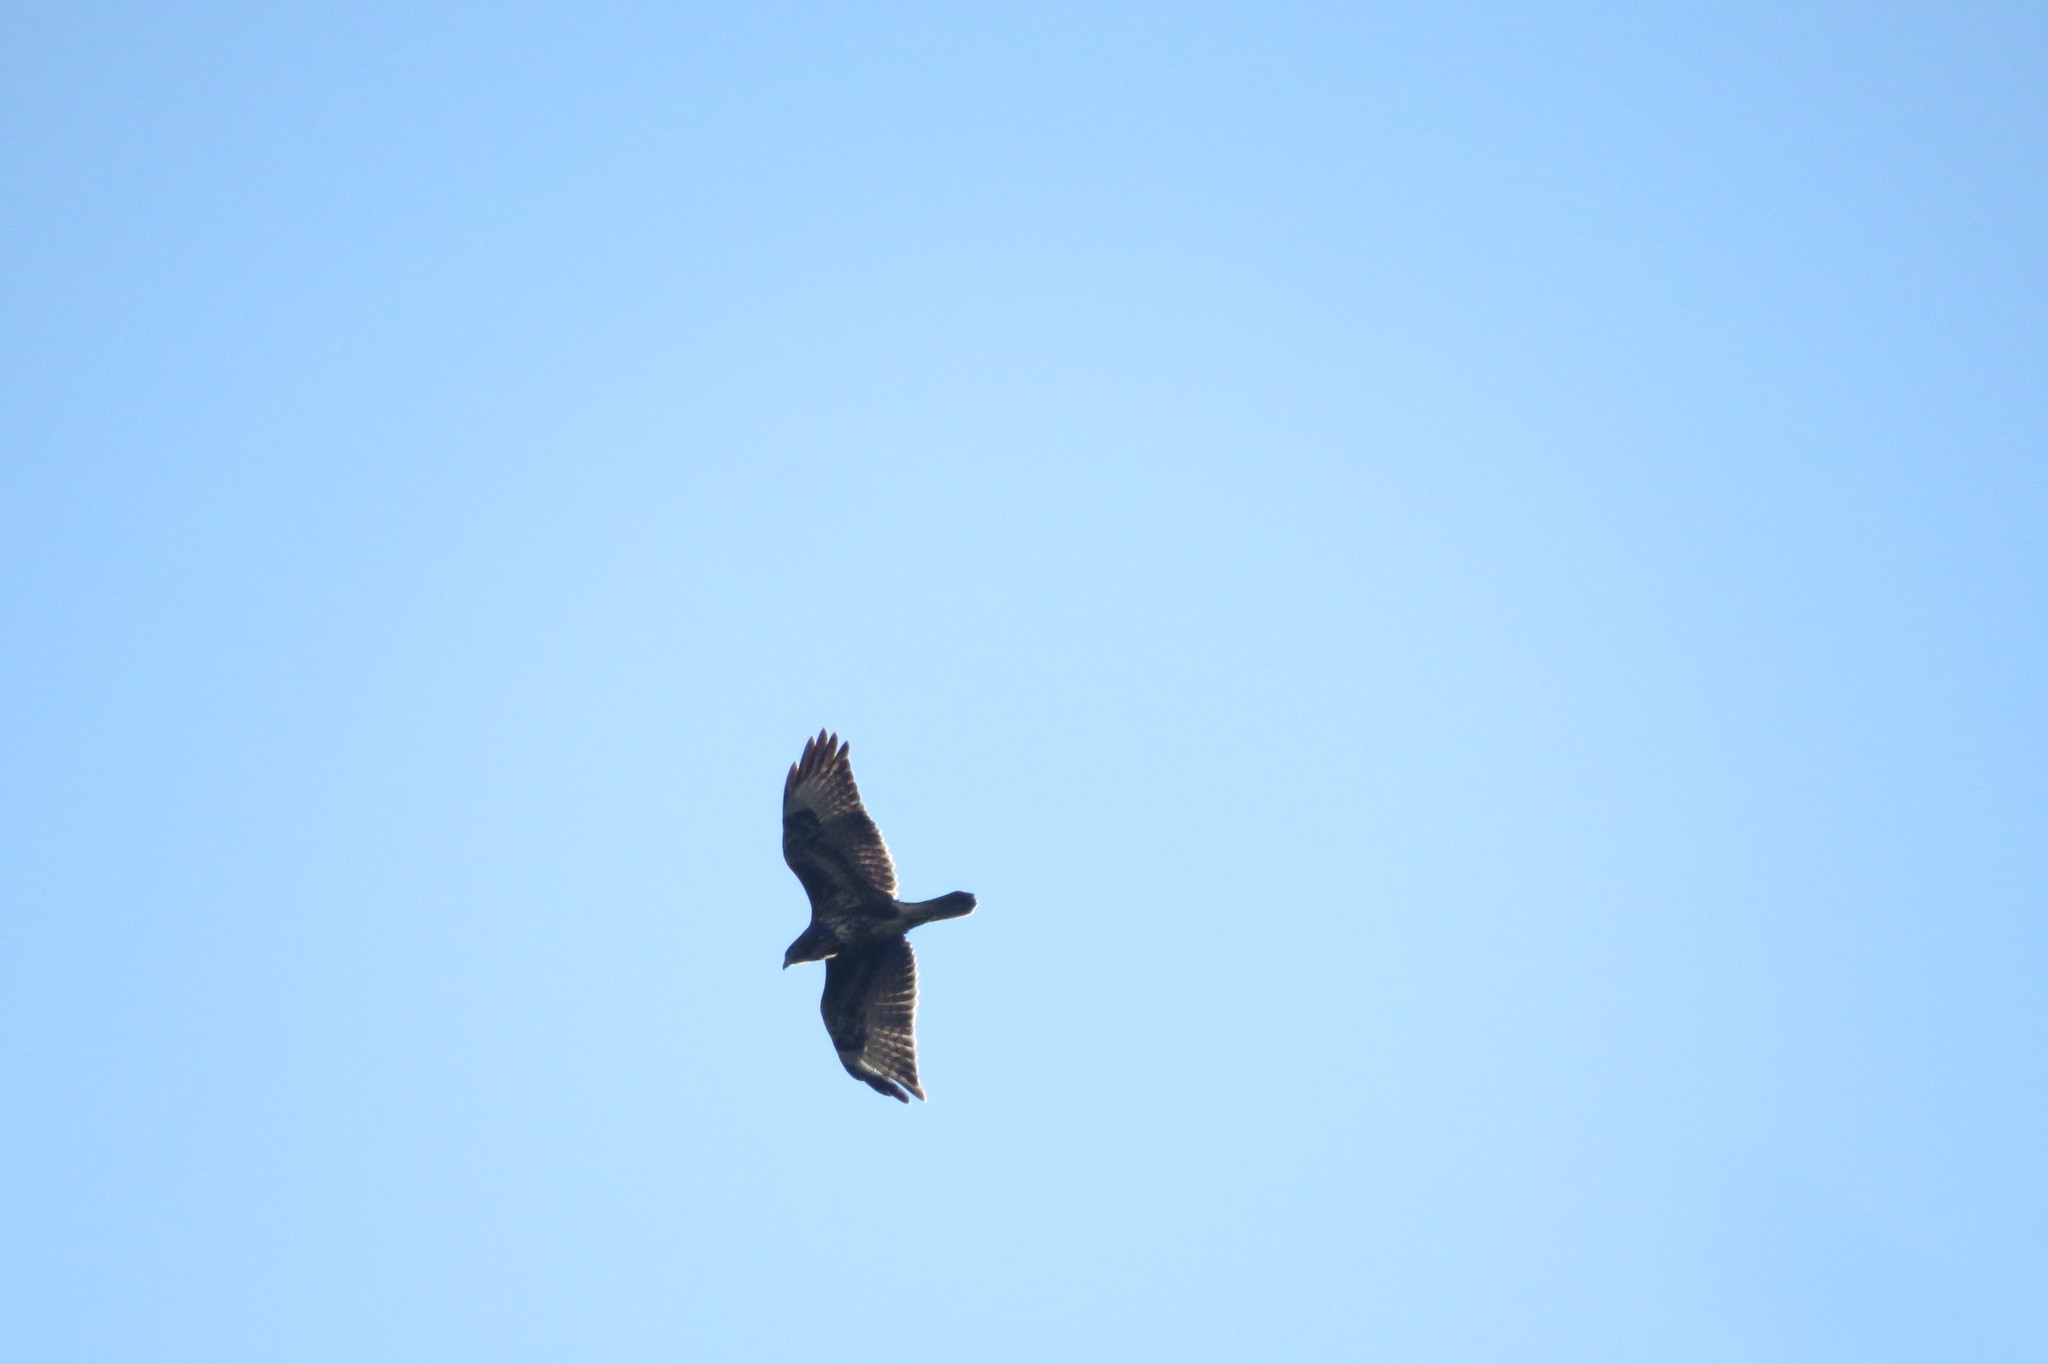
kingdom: Animalia
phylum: Chordata
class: Aves
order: Accipitriformes
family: Accipitridae
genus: Buteo
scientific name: Buteo buteo
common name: Common buzzard
